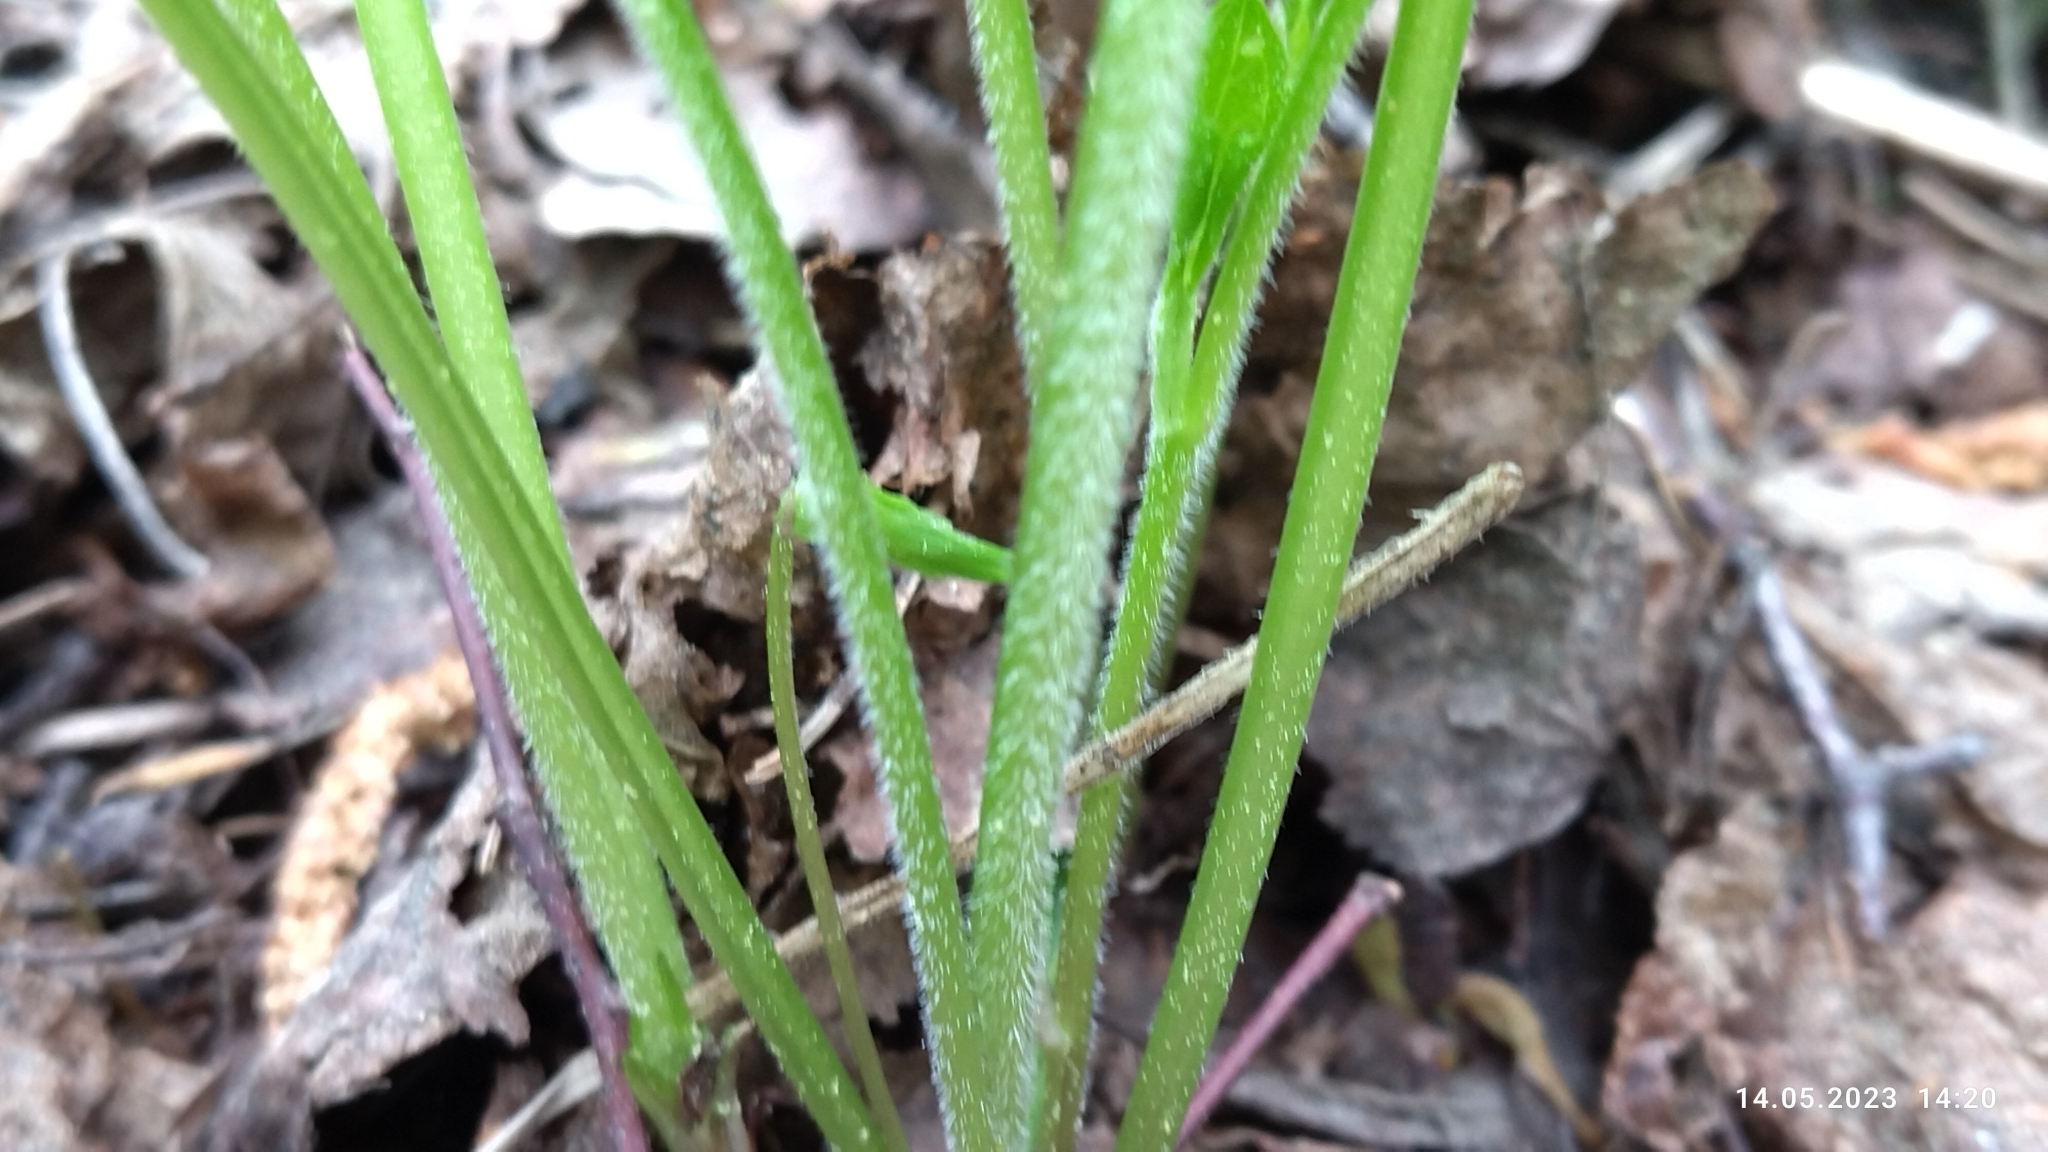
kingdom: Plantae
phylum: Tracheophyta
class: Magnoliopsida
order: Malpighiales
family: Violaceae
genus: Viola
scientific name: Viola mirabilis
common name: Wonder violet
